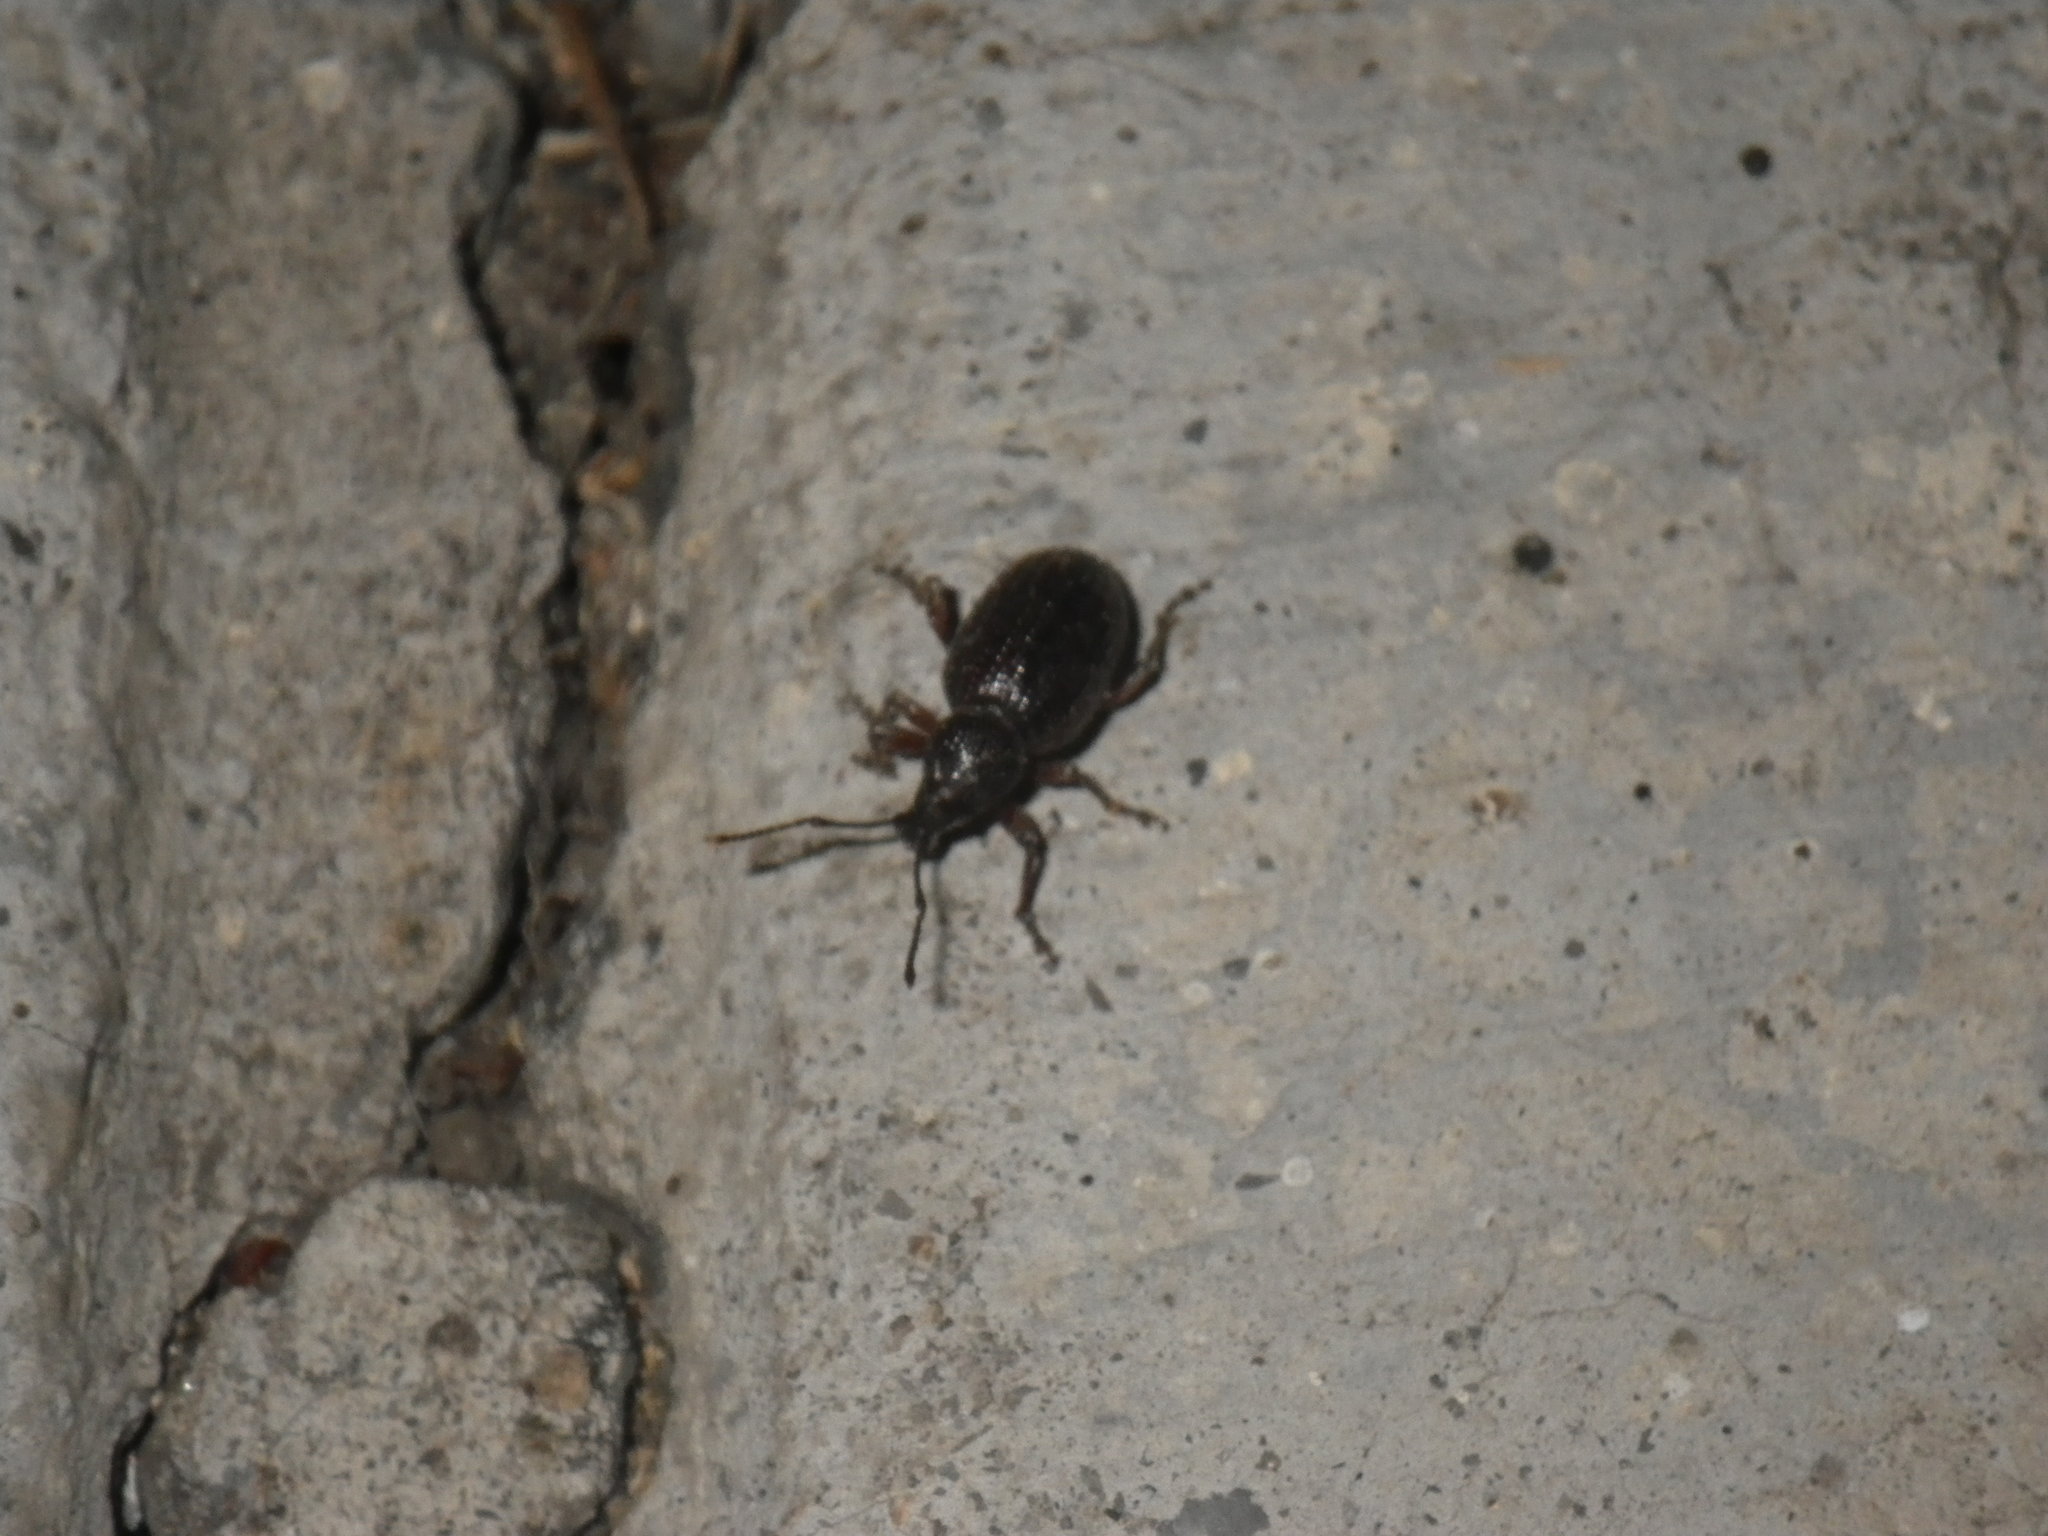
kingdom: Animalia
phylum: Arthropoda
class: Insecta
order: Coleoptera
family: Curculionidae
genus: Otiorhynchus
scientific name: Otiorhynchus cribricollis
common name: Weevil
